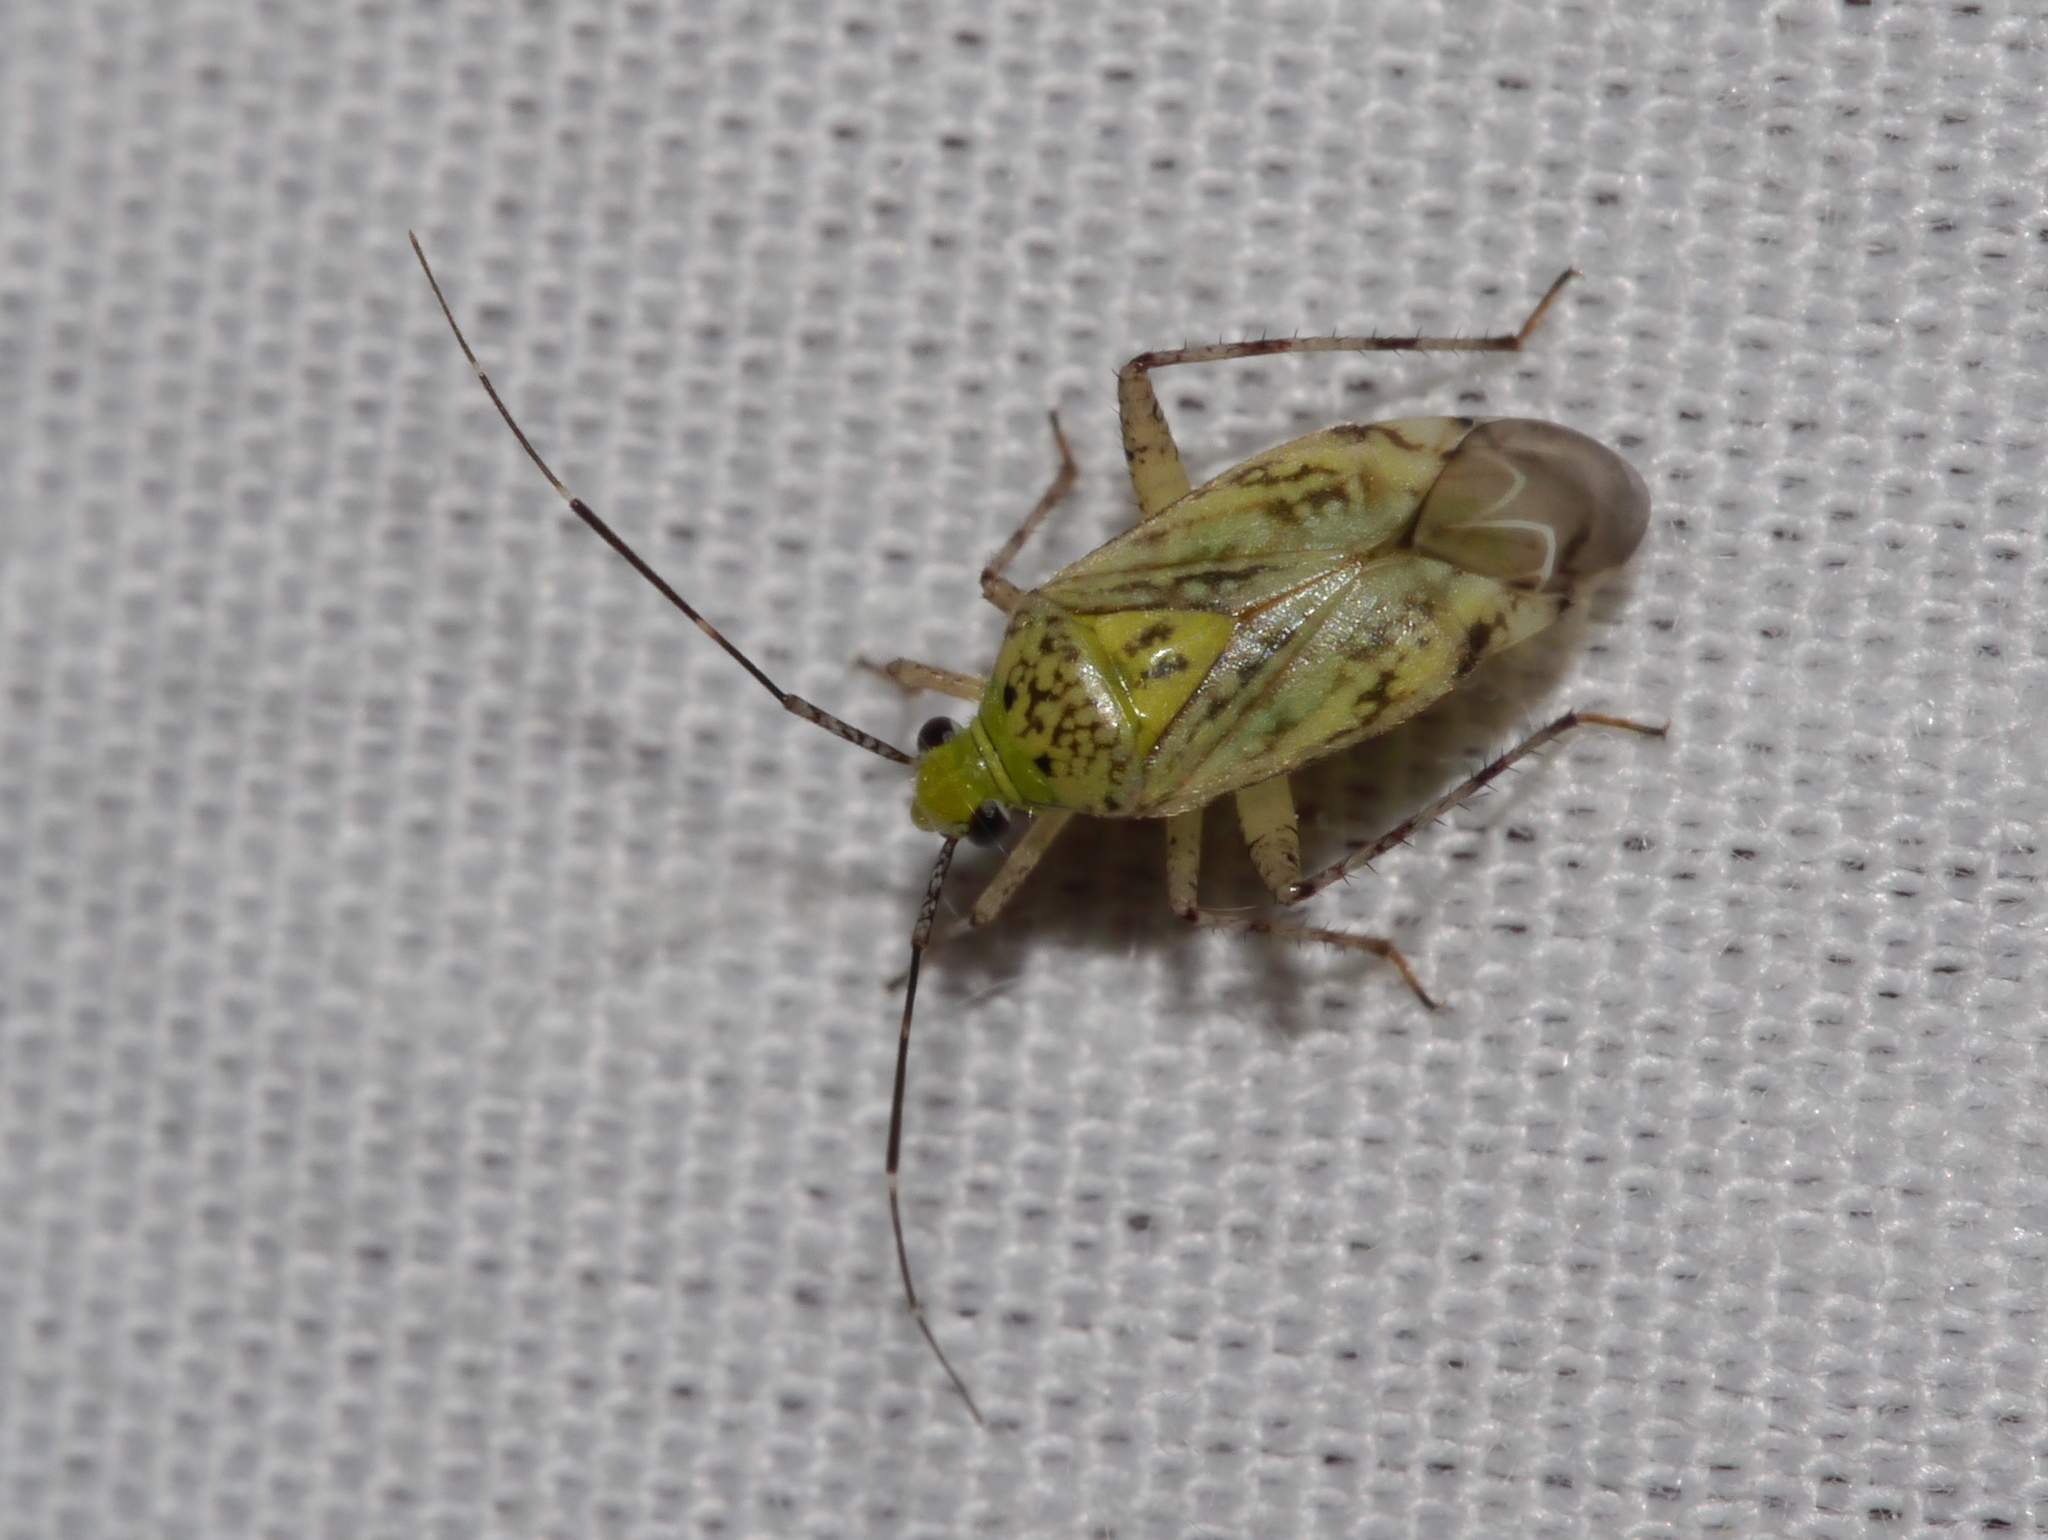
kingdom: Animalia
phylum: Arthropoda
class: Insecta
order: Hemiptera
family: Miridae
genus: Taedia
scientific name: Taedia marmorata
